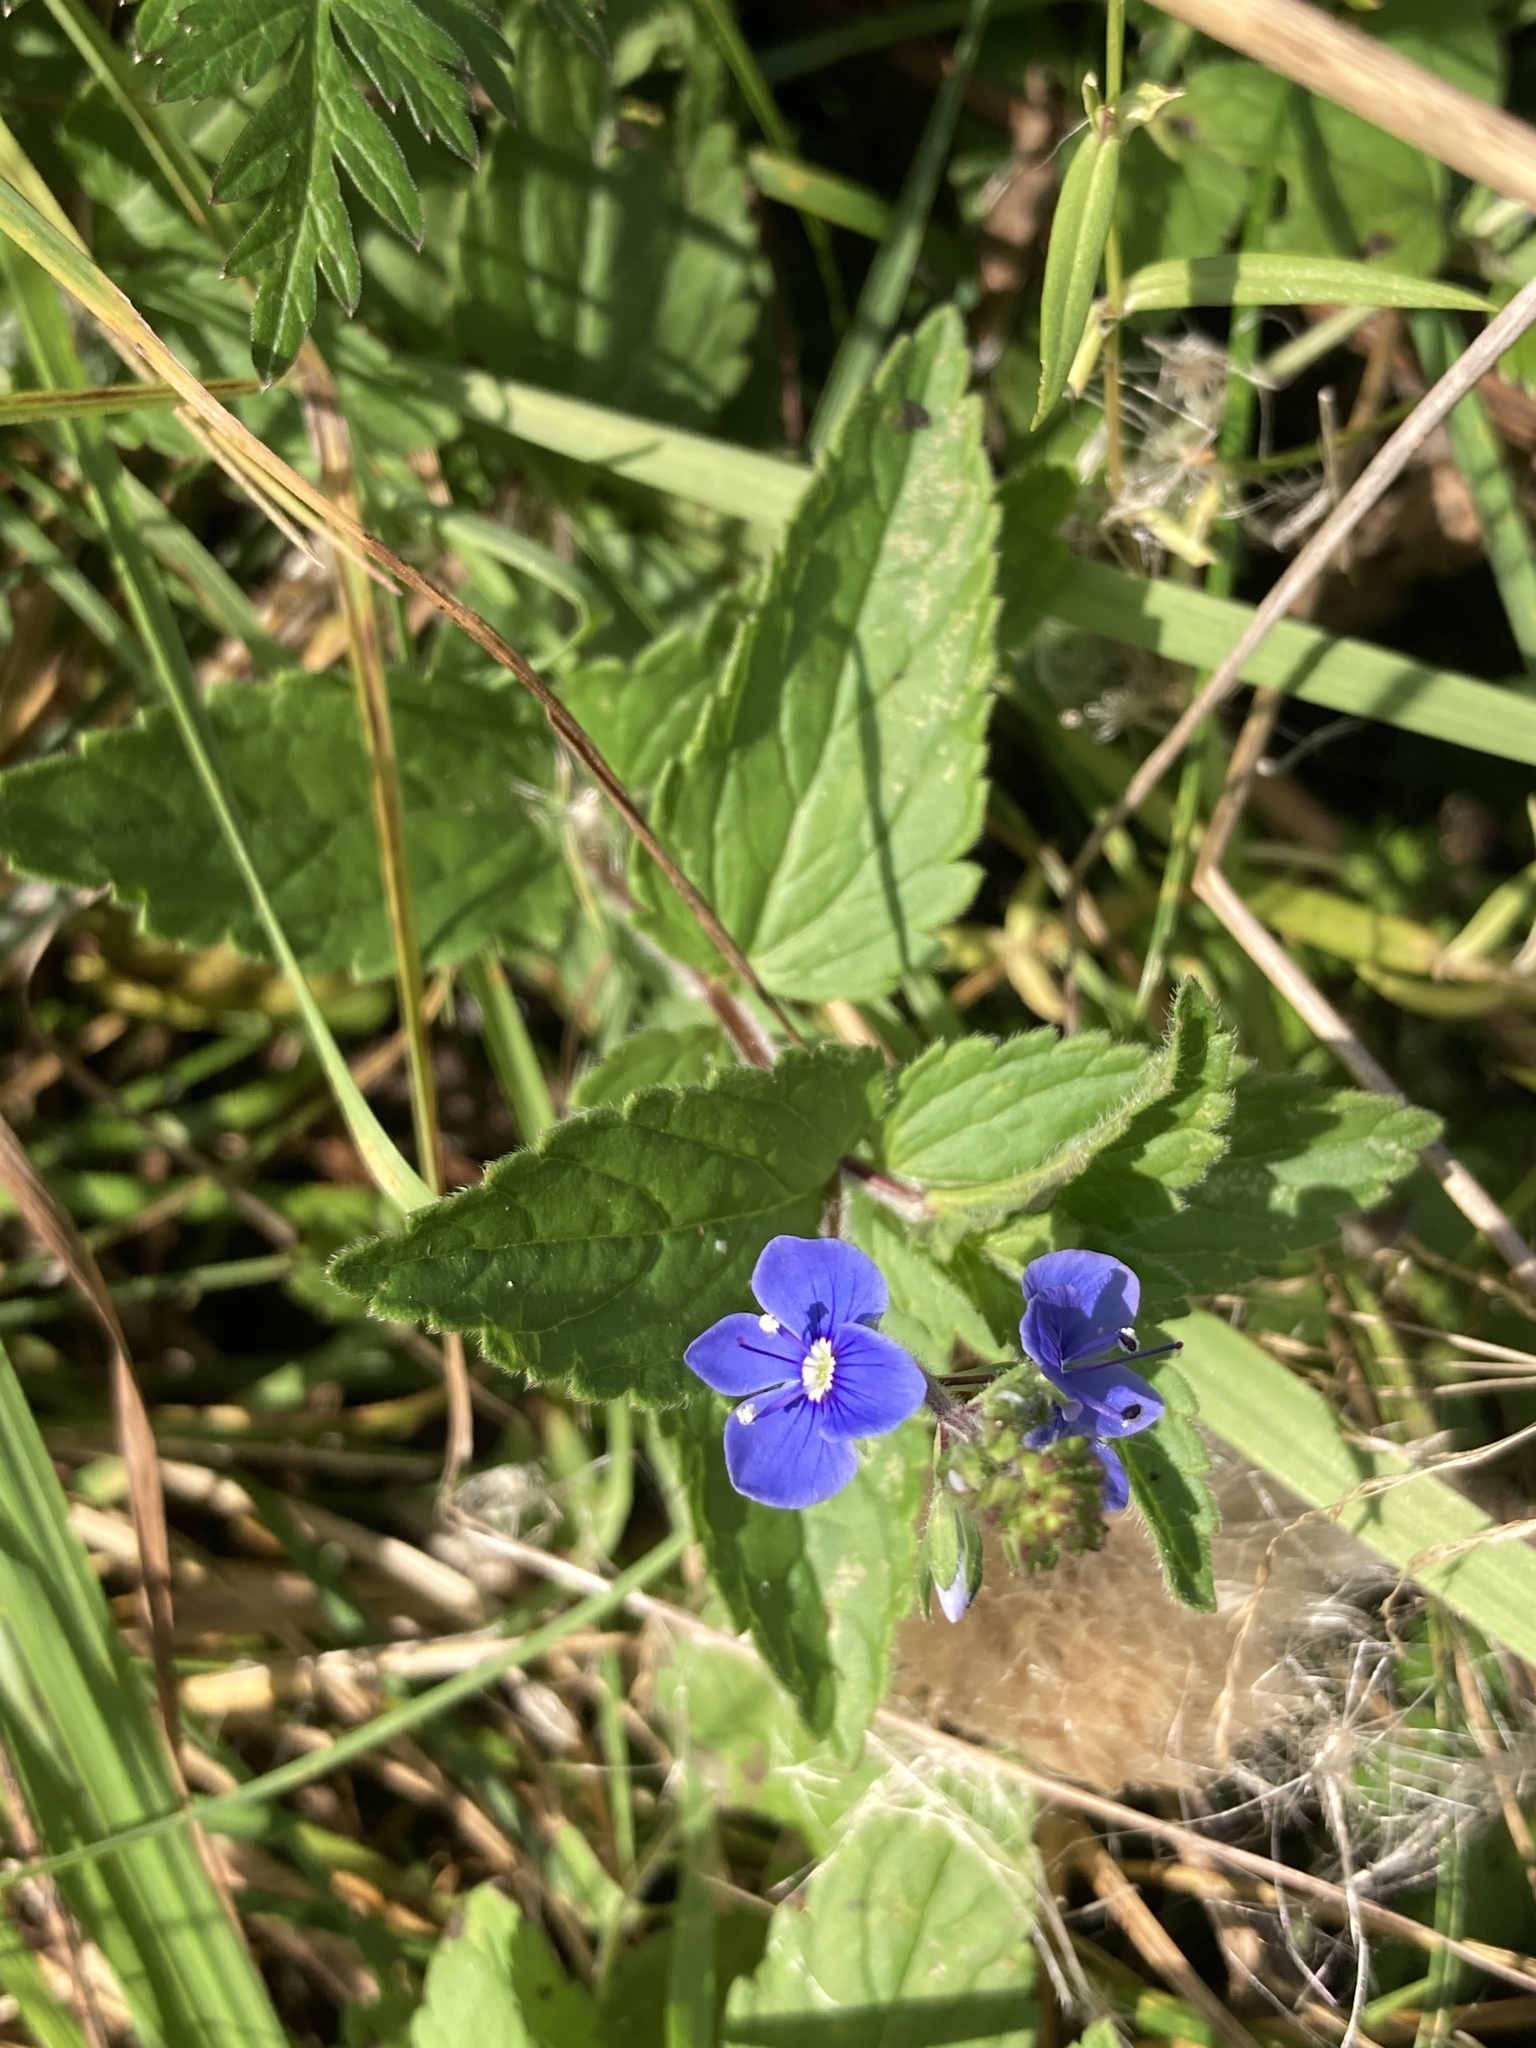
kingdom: Plantae
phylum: Tracheophyta
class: Magnoliopsida
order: Lamiales
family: Plantaginaceae
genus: Veronica
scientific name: Veronica chamaedrys
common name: Germander speedwell
